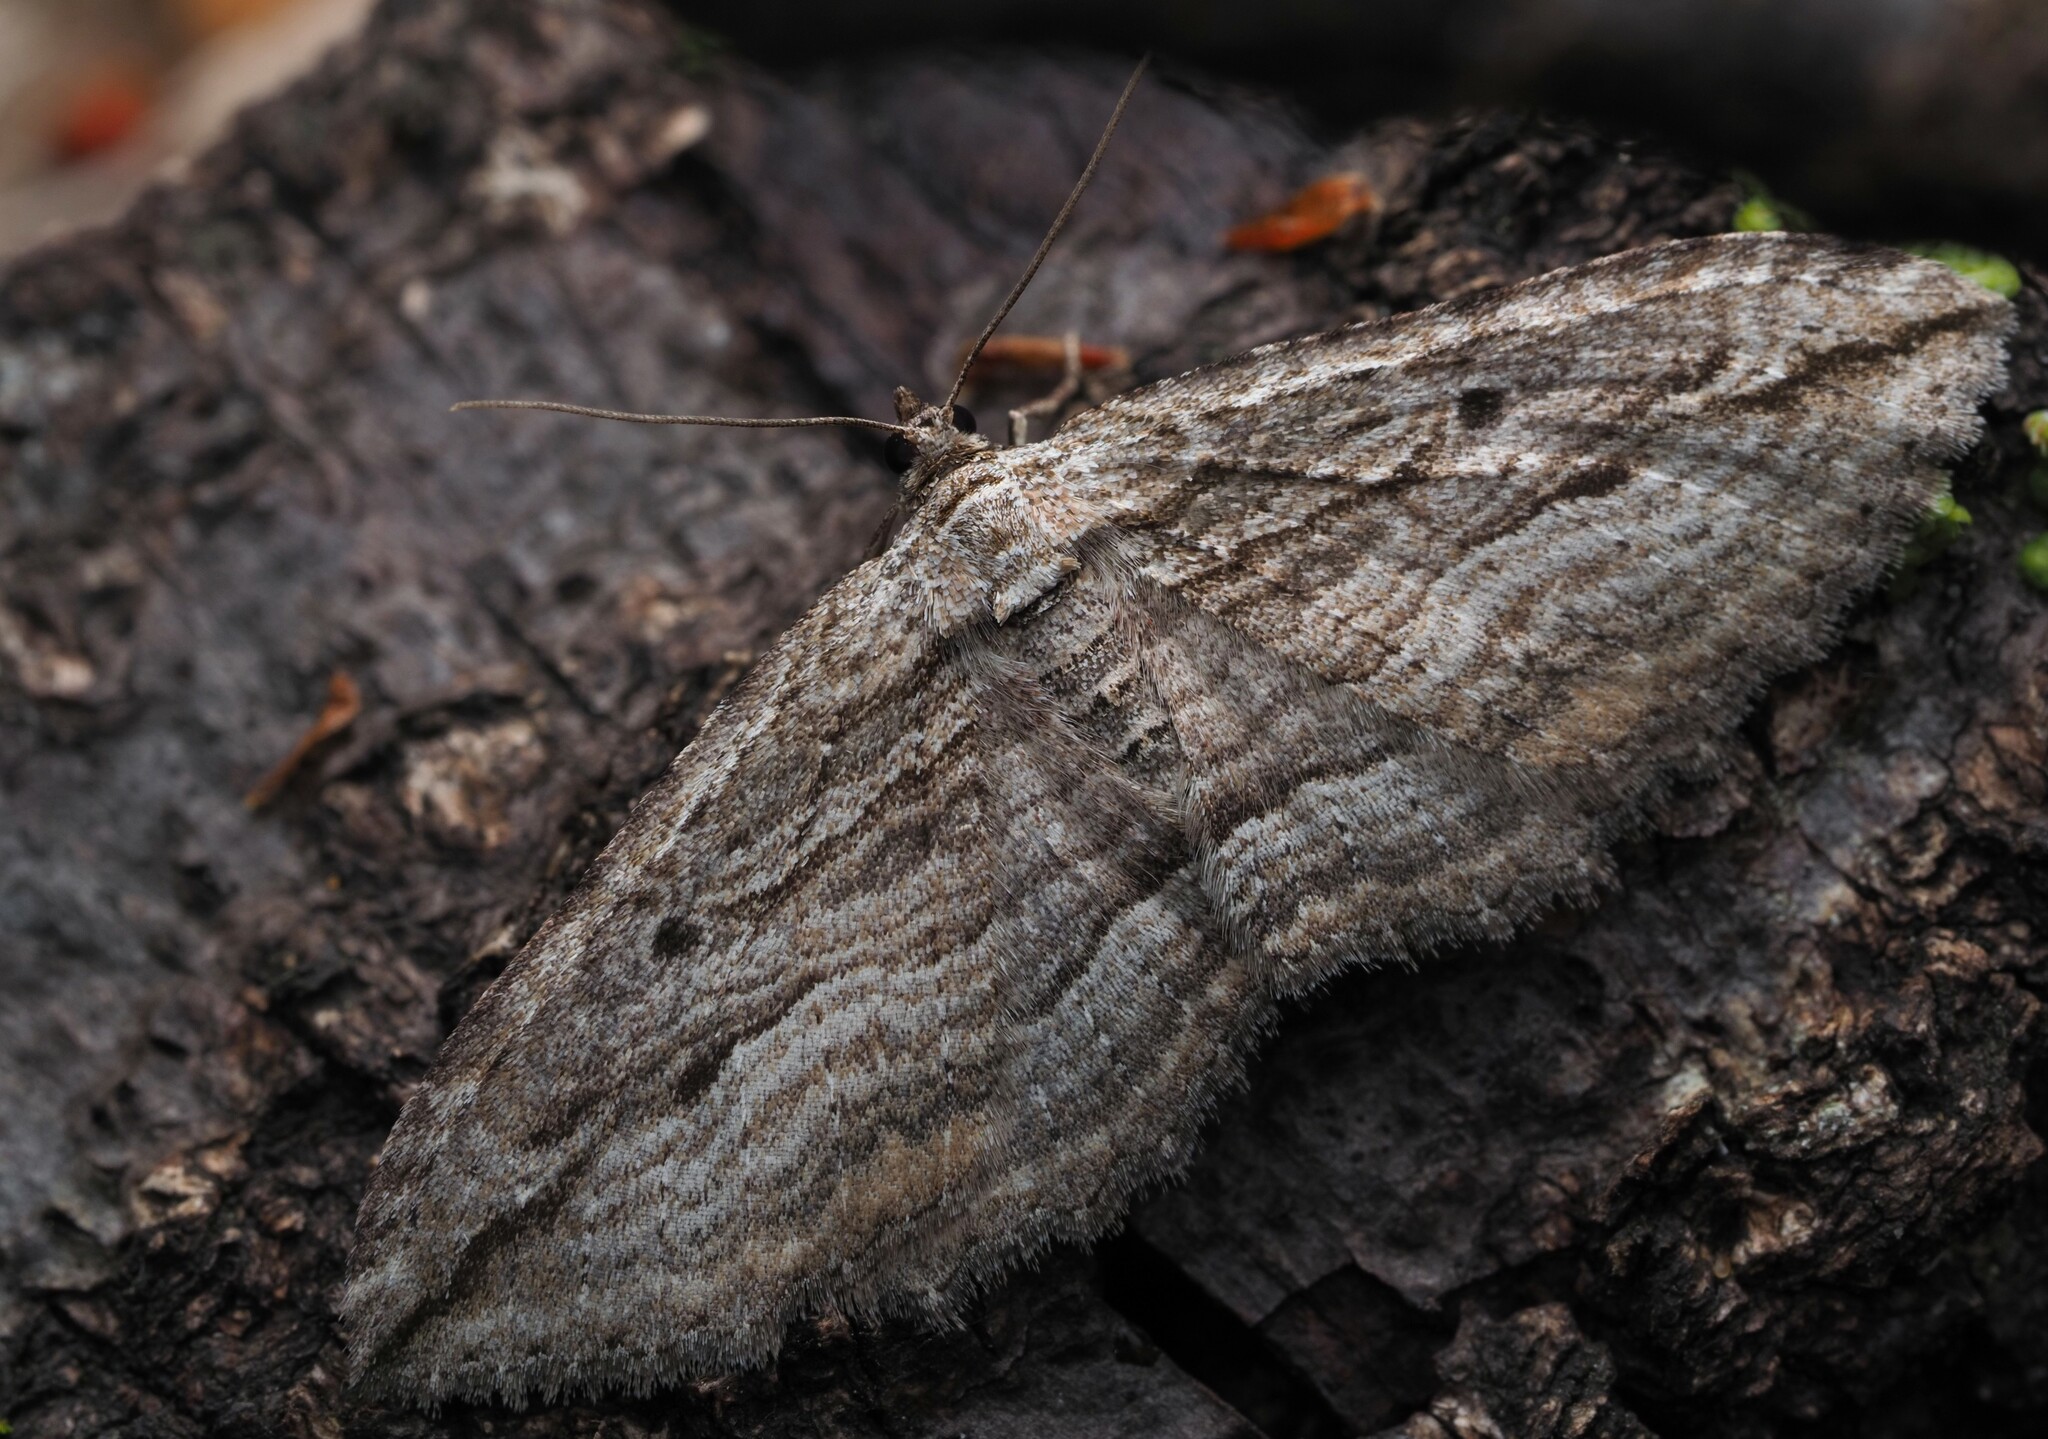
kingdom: Animalia
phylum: Arthropoda
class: Insecta
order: Lepidoptera
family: Geometridae
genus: Austrocidaria
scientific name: Austrocidaria gobiata
